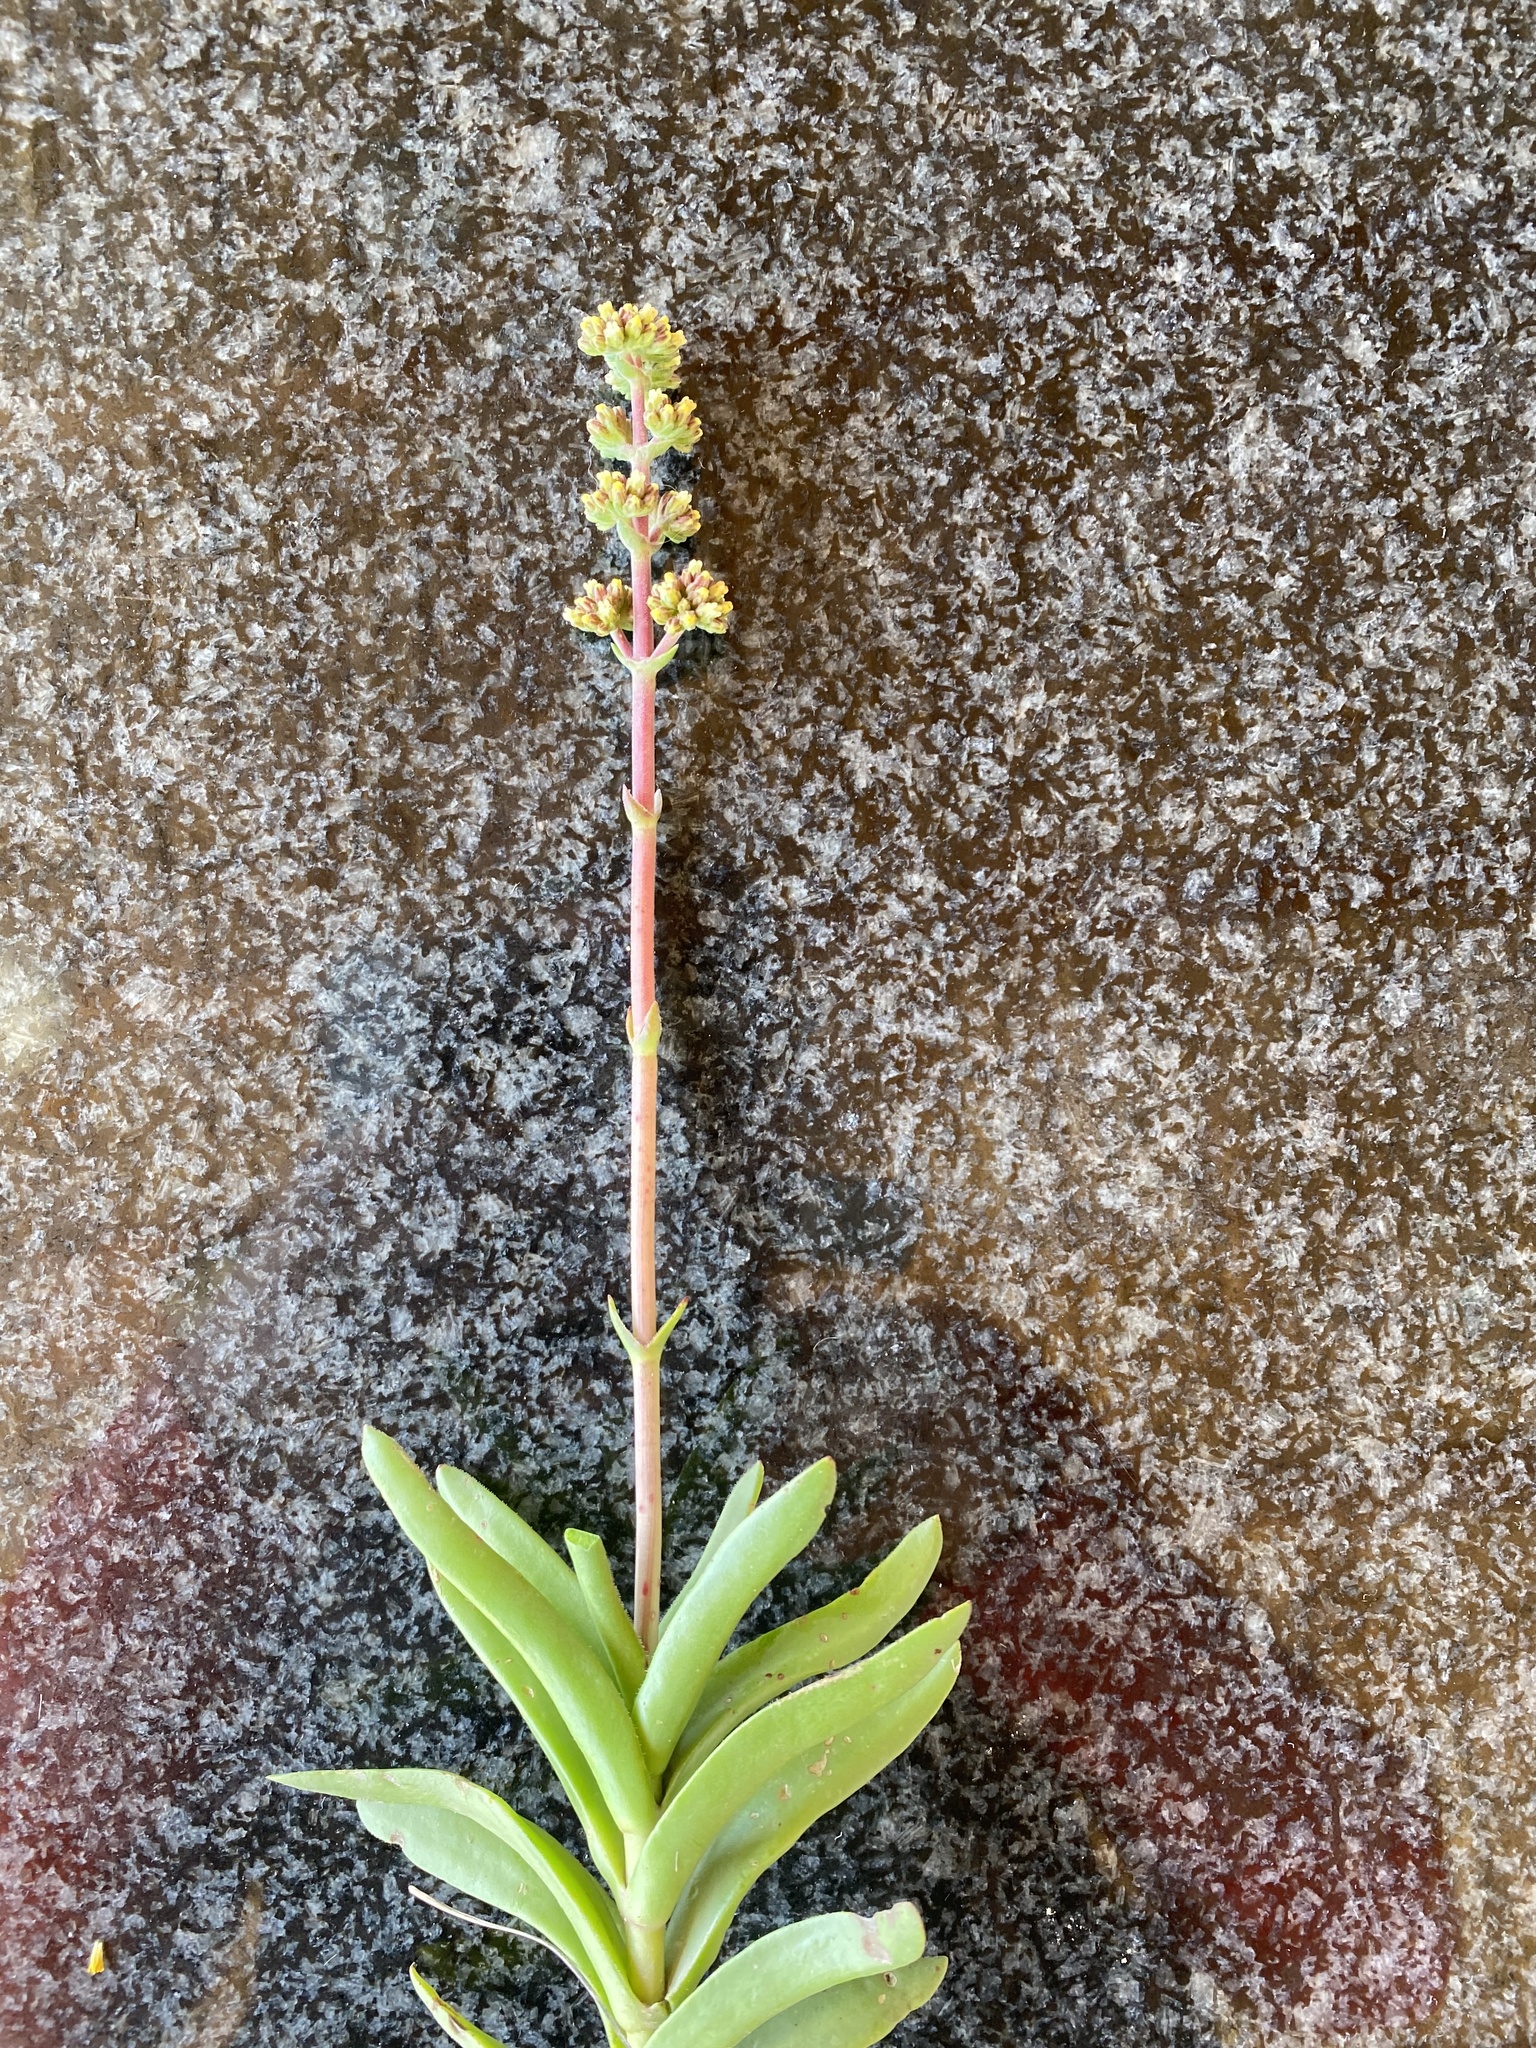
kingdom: Plantae
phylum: Tracheophyta
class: Magnoliopsida
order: Saxifragales
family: Crassulaceae
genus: Crassula
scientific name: Crassula pubescens
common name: Jersey pigmyweed
